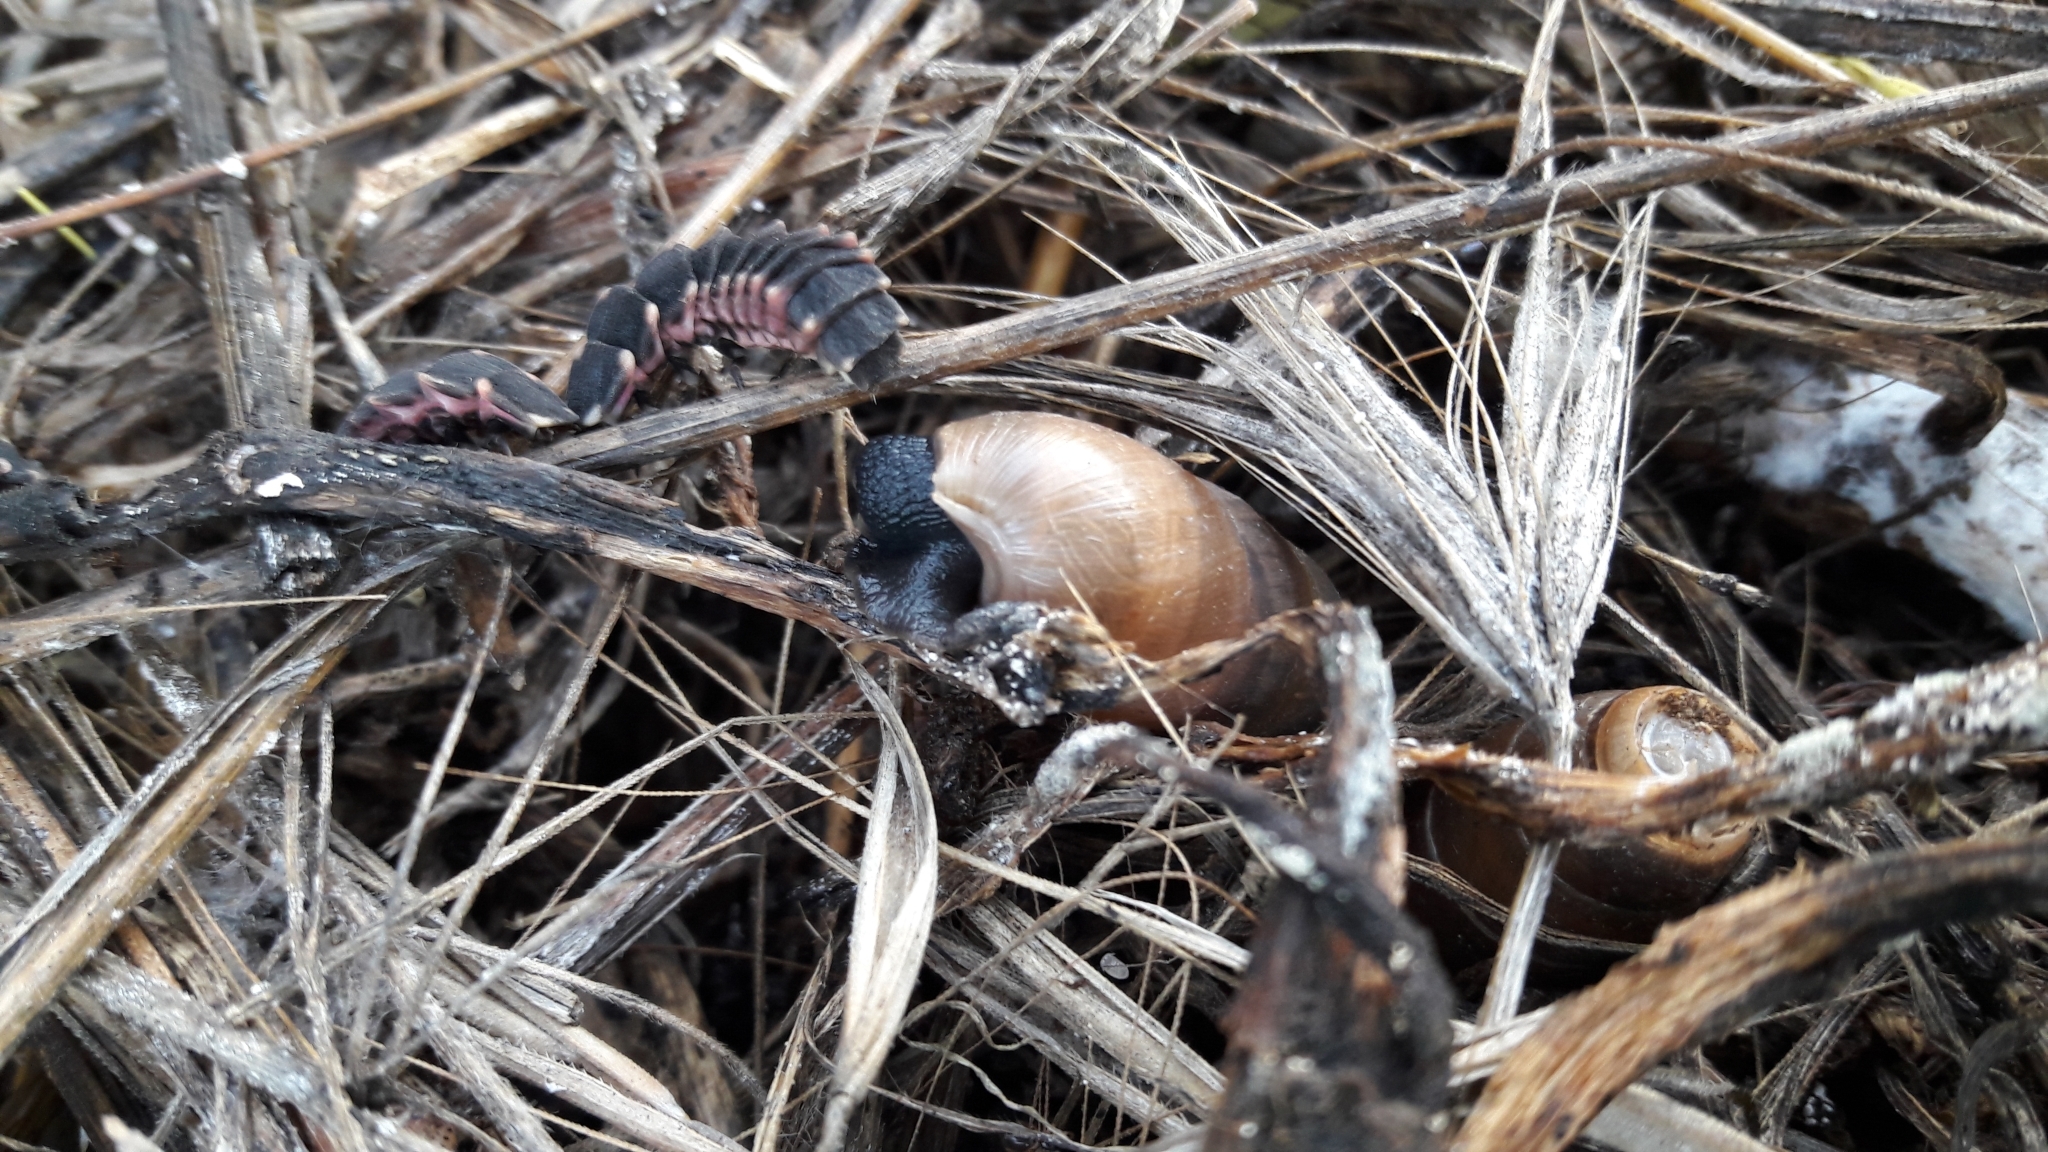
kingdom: Animalia
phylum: Mollusca
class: Gastropoda
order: Stylommatophora
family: Achatinidae
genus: Rumina
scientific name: Rumina decollata
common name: Decollate snail
